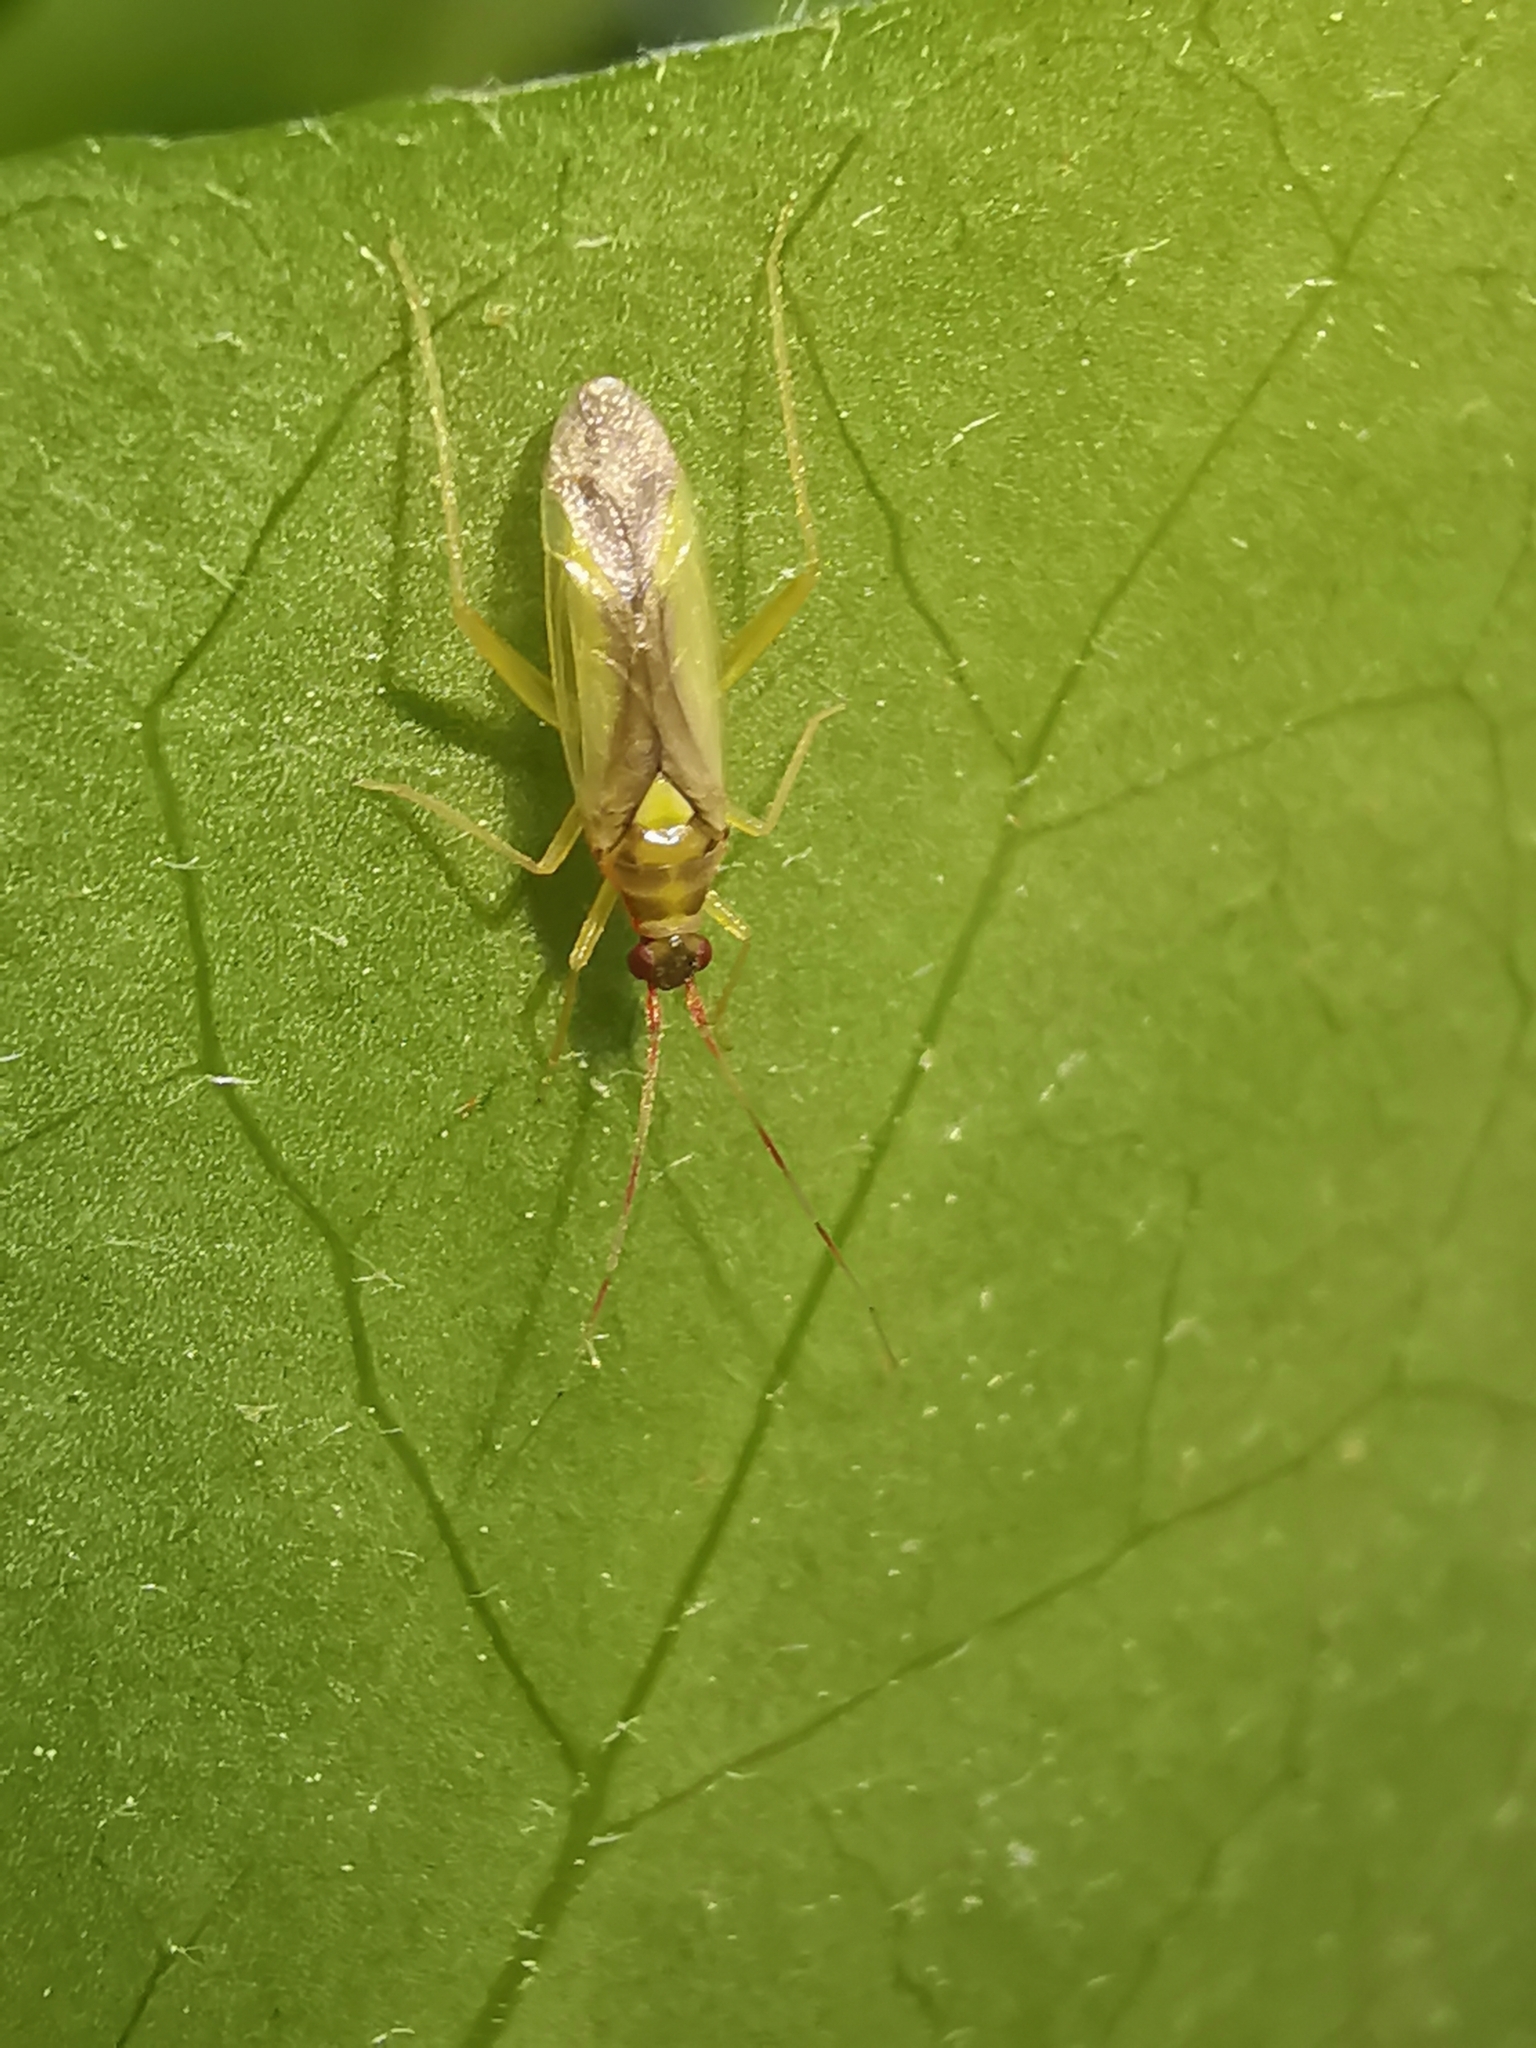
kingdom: Animalia
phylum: Arthropoda
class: Insecta
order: Hemiptera
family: Miridae
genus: Campyloneura
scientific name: Campyloneura virgula
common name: Predatory bug
